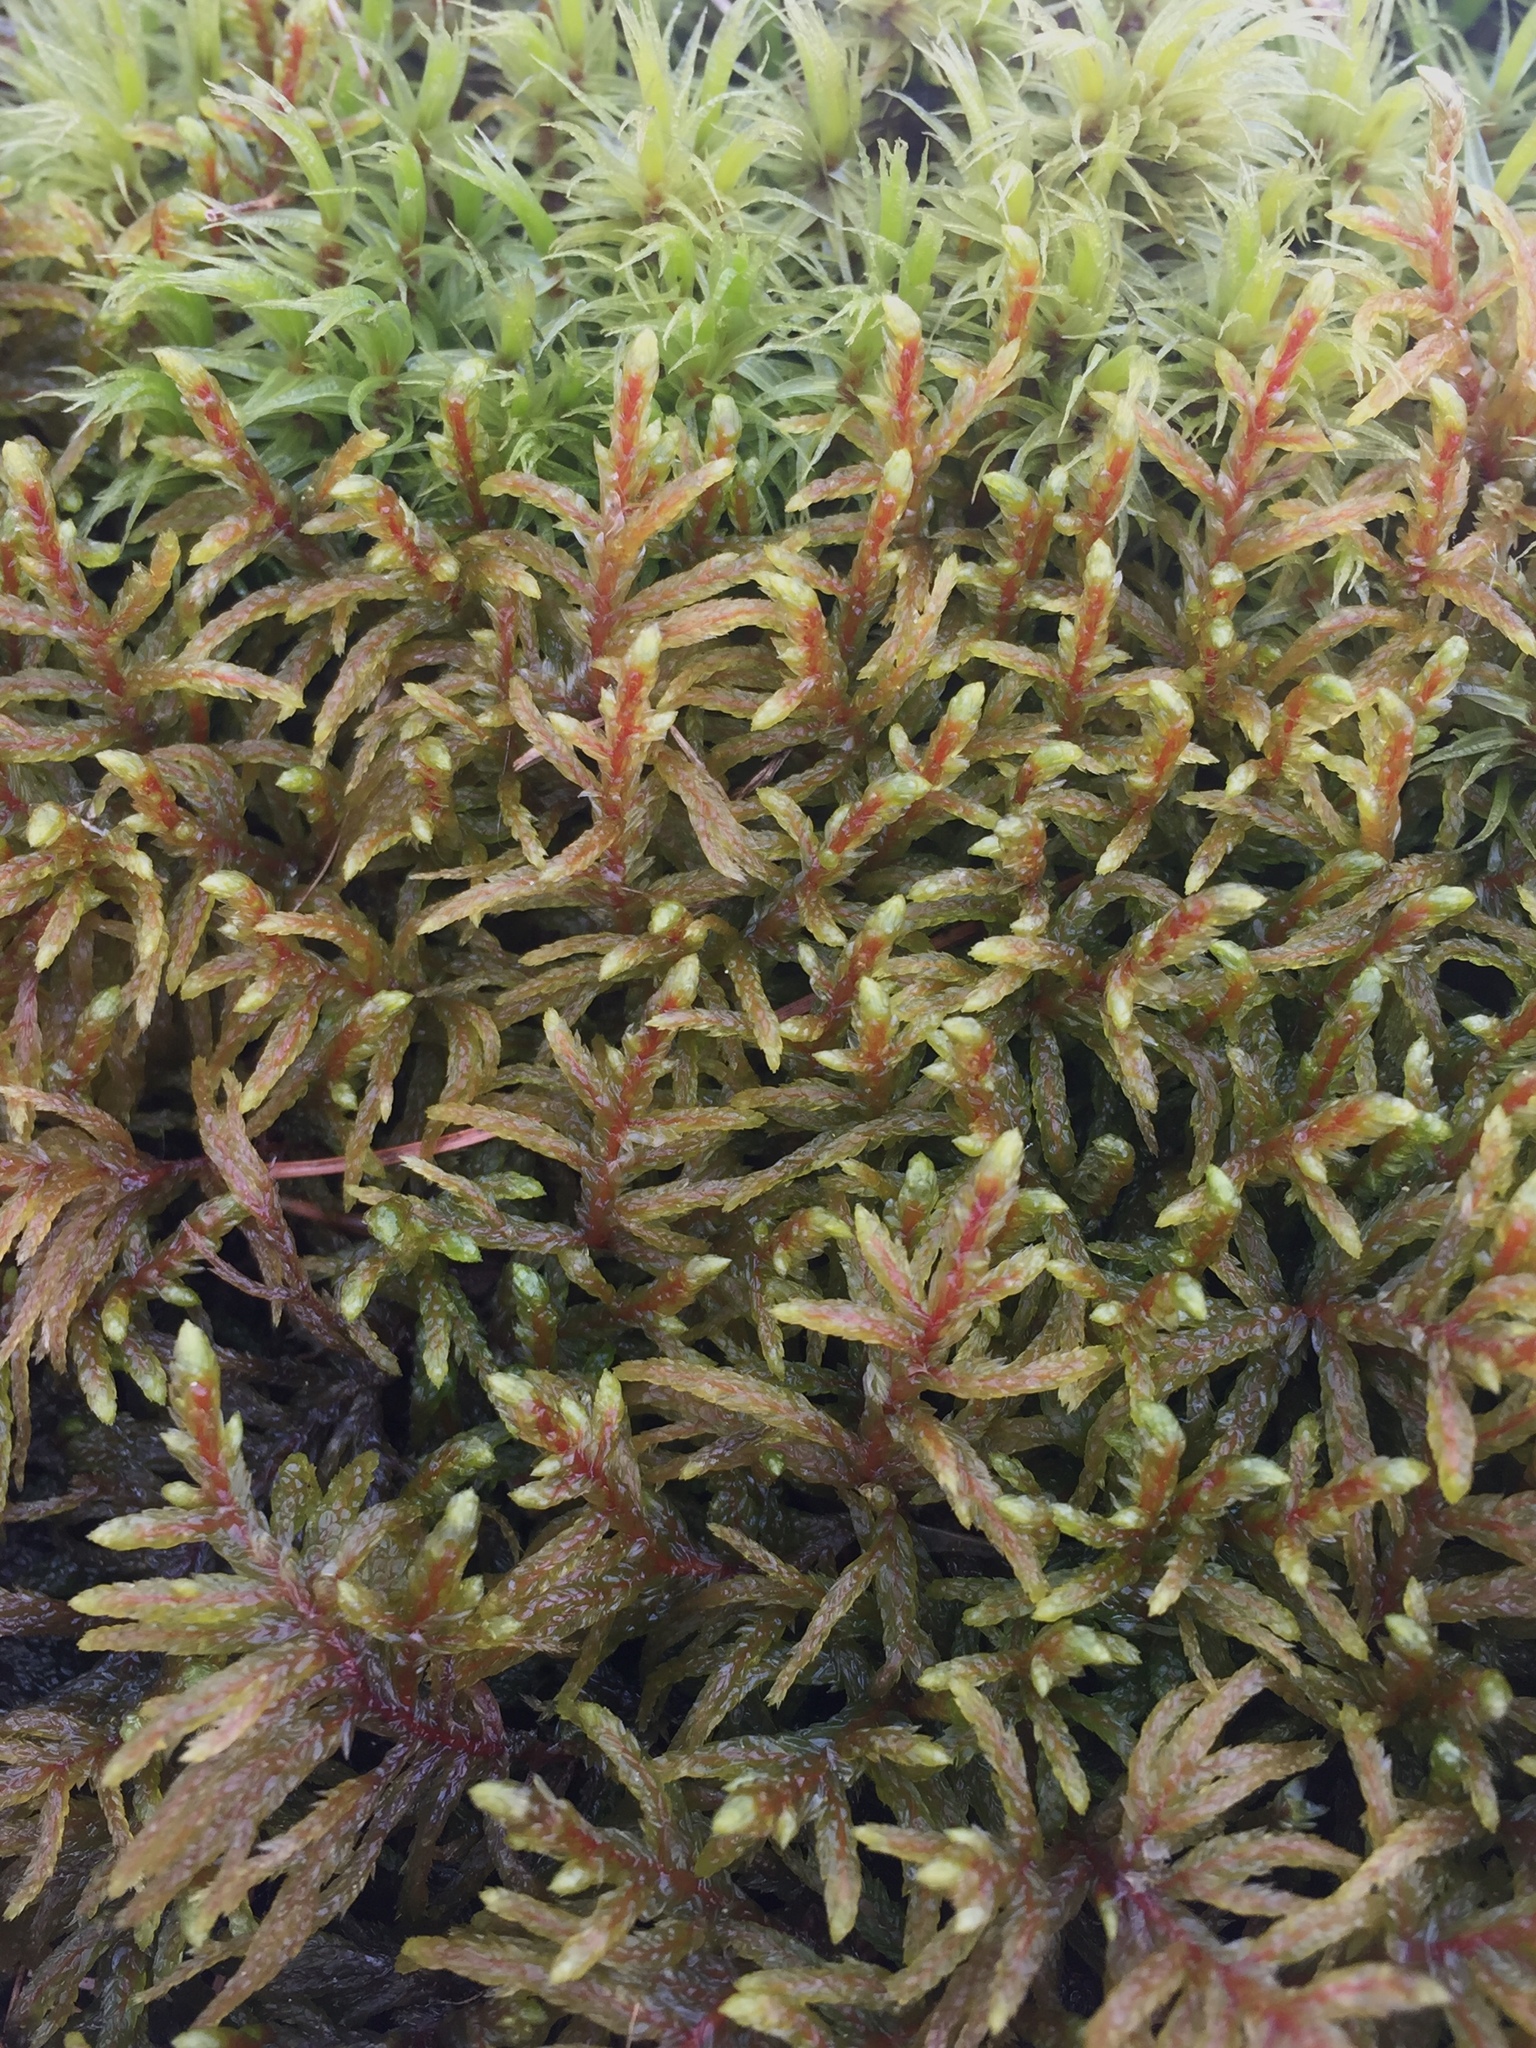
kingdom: Plantae
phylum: Bryophyta
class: Bryopsida
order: Hypnales
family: Hylocomiaceae
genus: Pleurozium
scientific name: Pleurozium schreberi
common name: Red-stemmed feather moss
